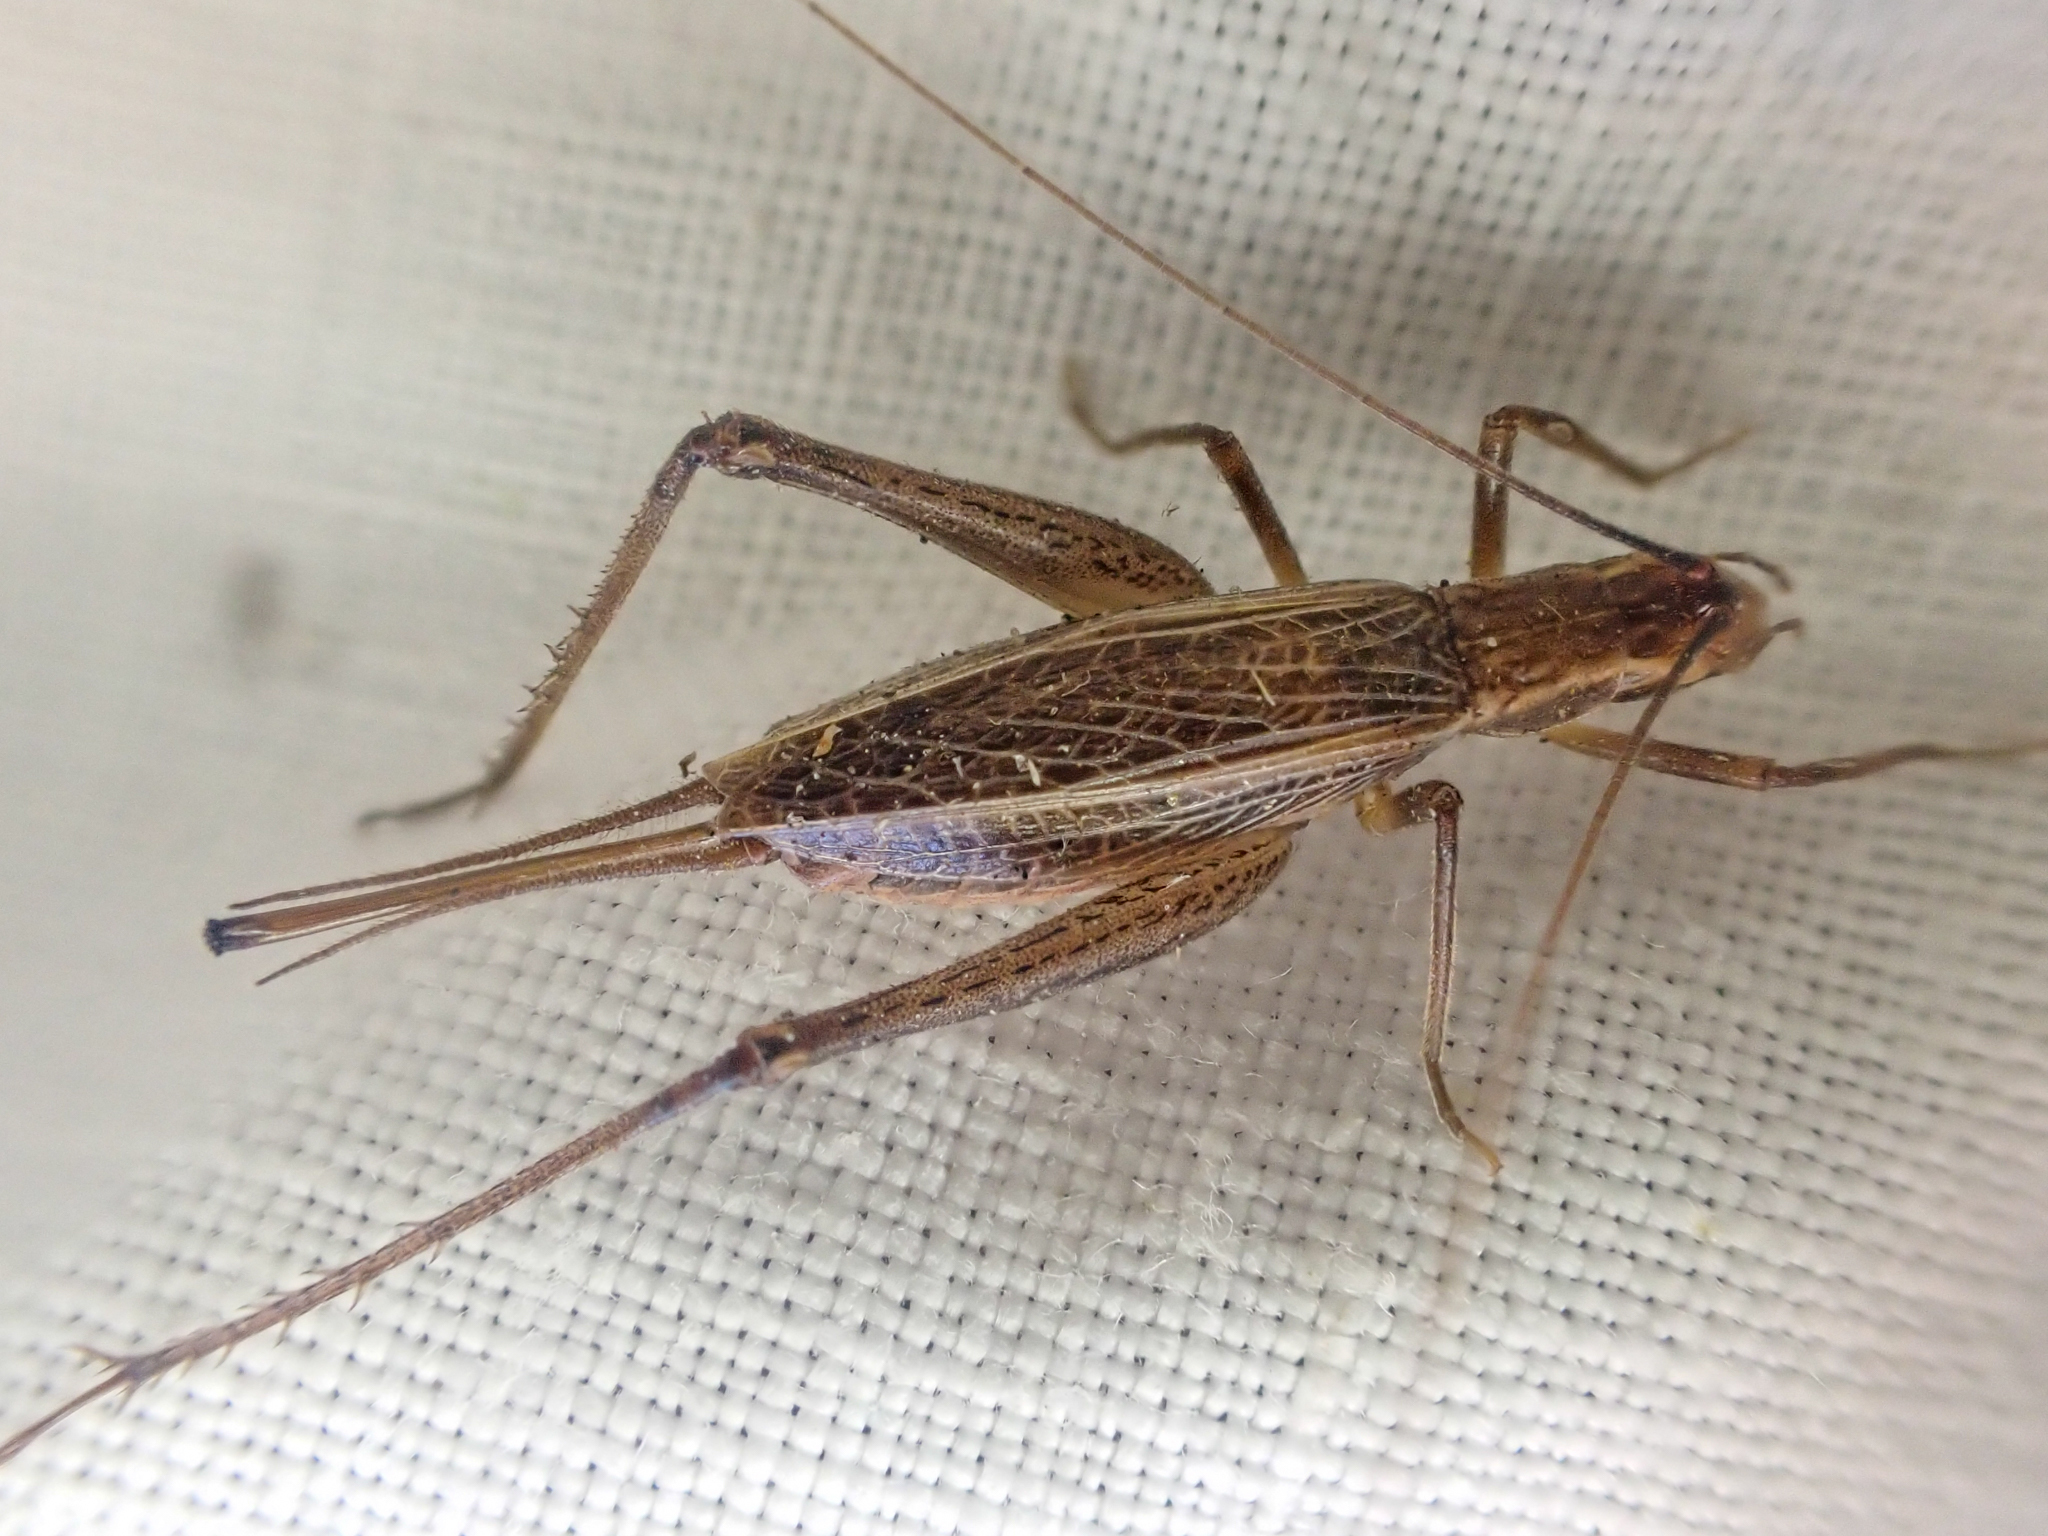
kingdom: Animalia
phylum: Arthropoda
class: Insecta
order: Orthoptera
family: Gryllidae
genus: Oecanthus
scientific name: Oecanthus californicus
